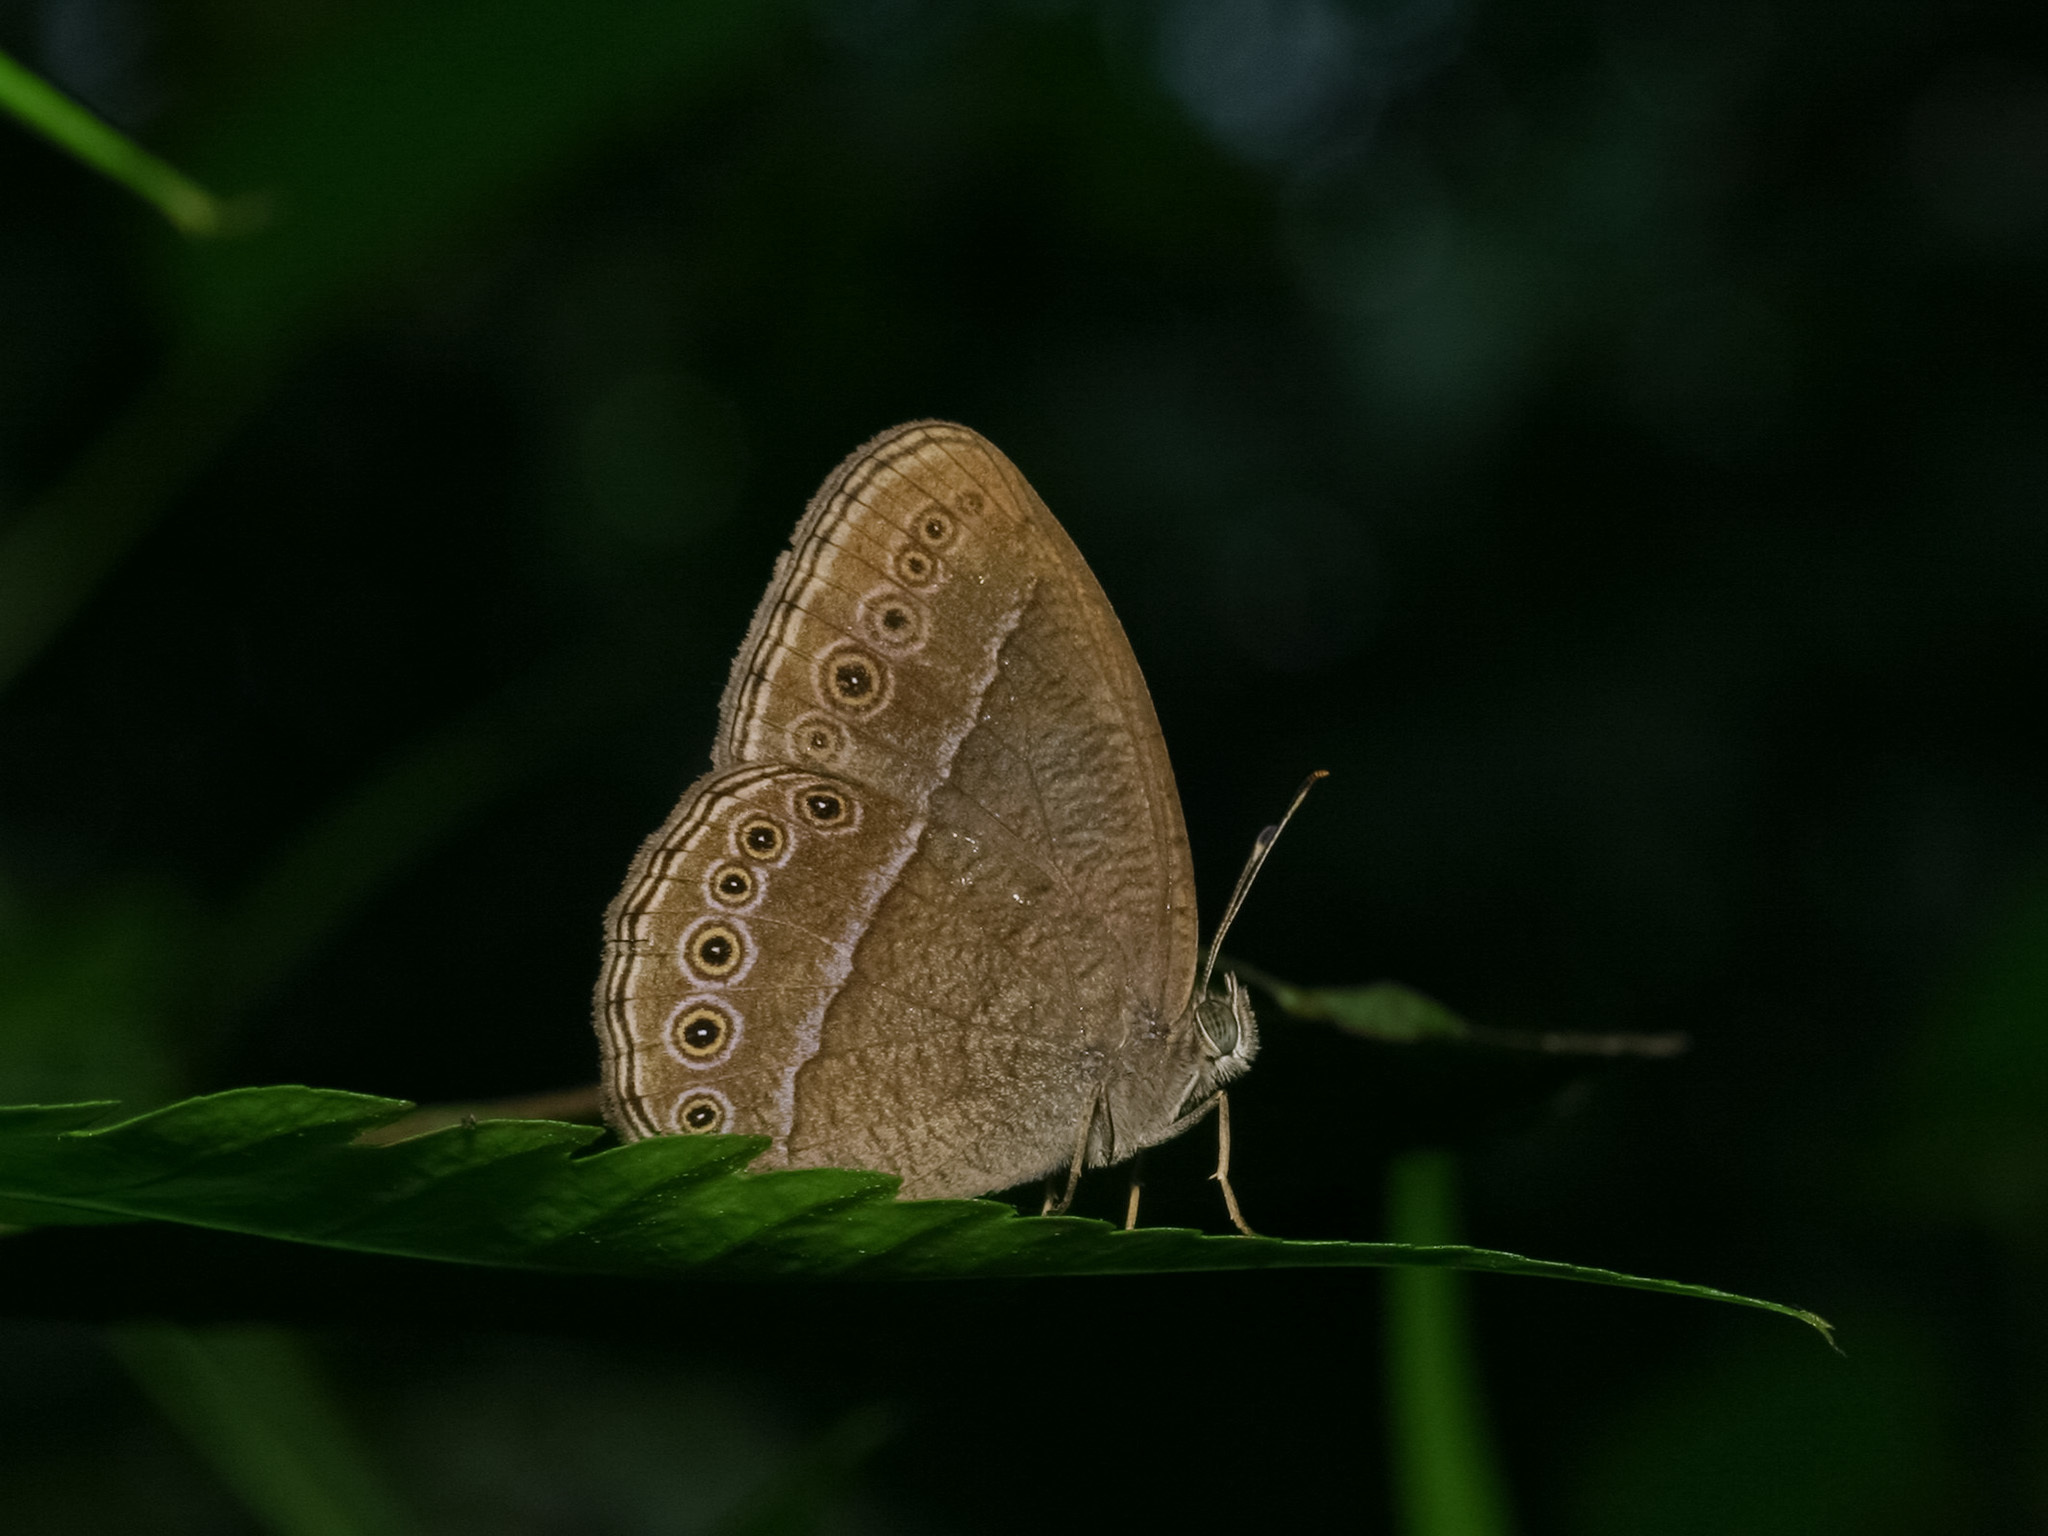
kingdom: Animalia
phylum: Arthropoda
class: Insecta
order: Lepidoptera
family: Nymphalidae
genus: Mycalesis
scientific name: Mycalesis Telinga janardana
